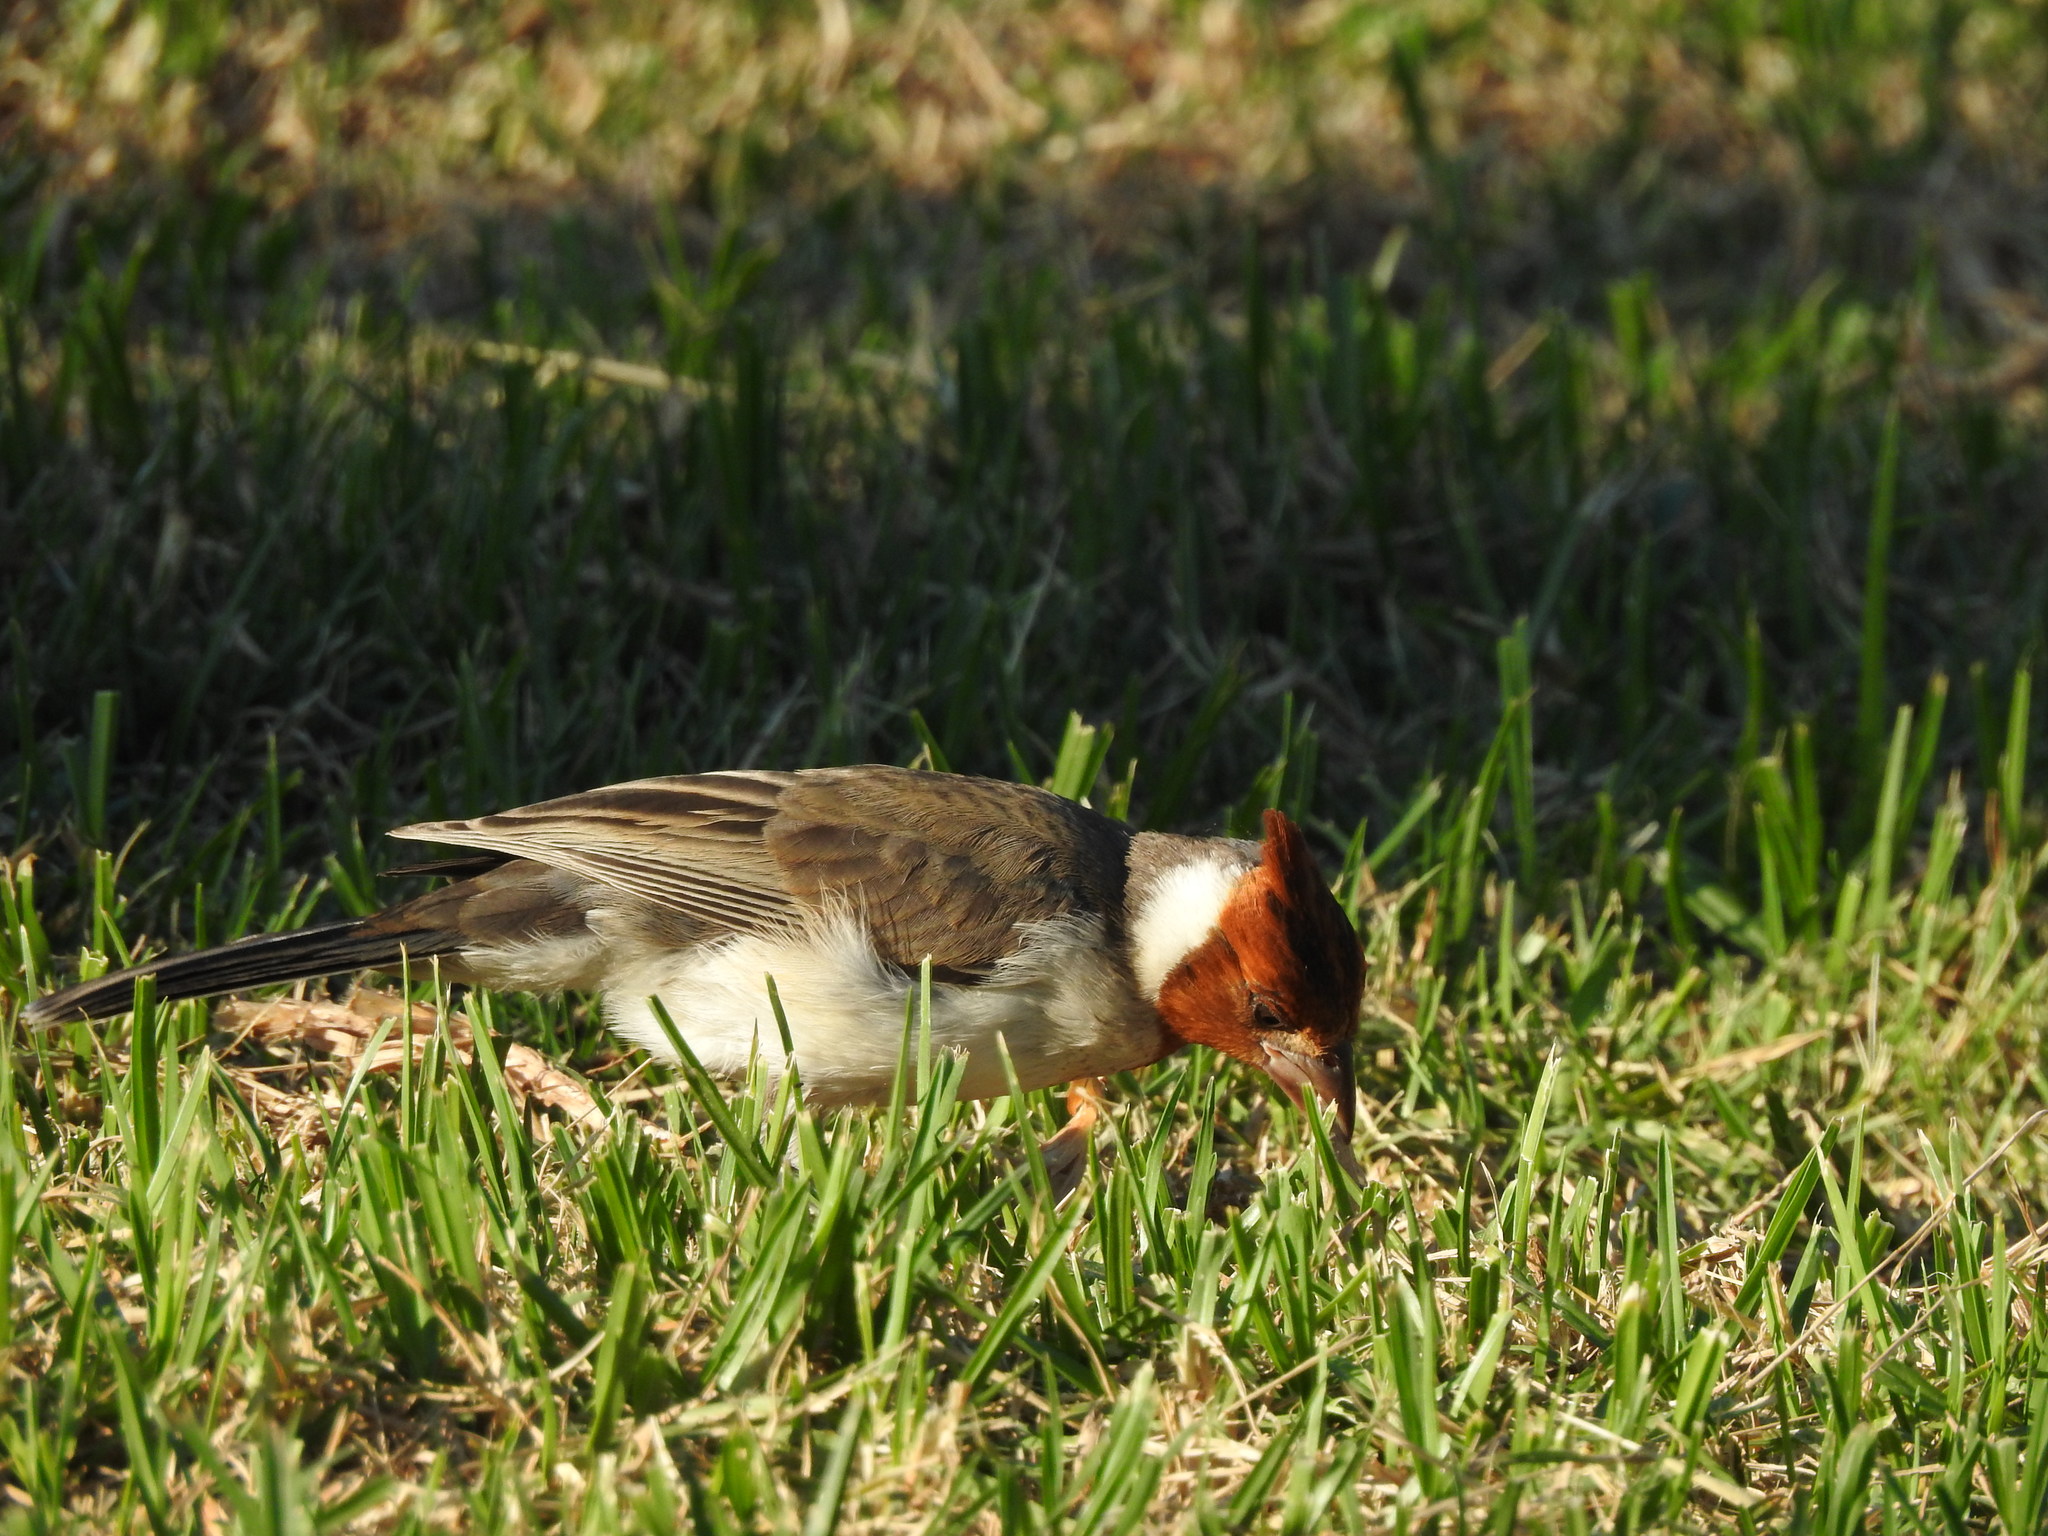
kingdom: Animalia
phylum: Chordata
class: Aves
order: Passeriformes
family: Thraupidae
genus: Paroaria
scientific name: Paroaria coronata
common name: Red-crested cardinal
